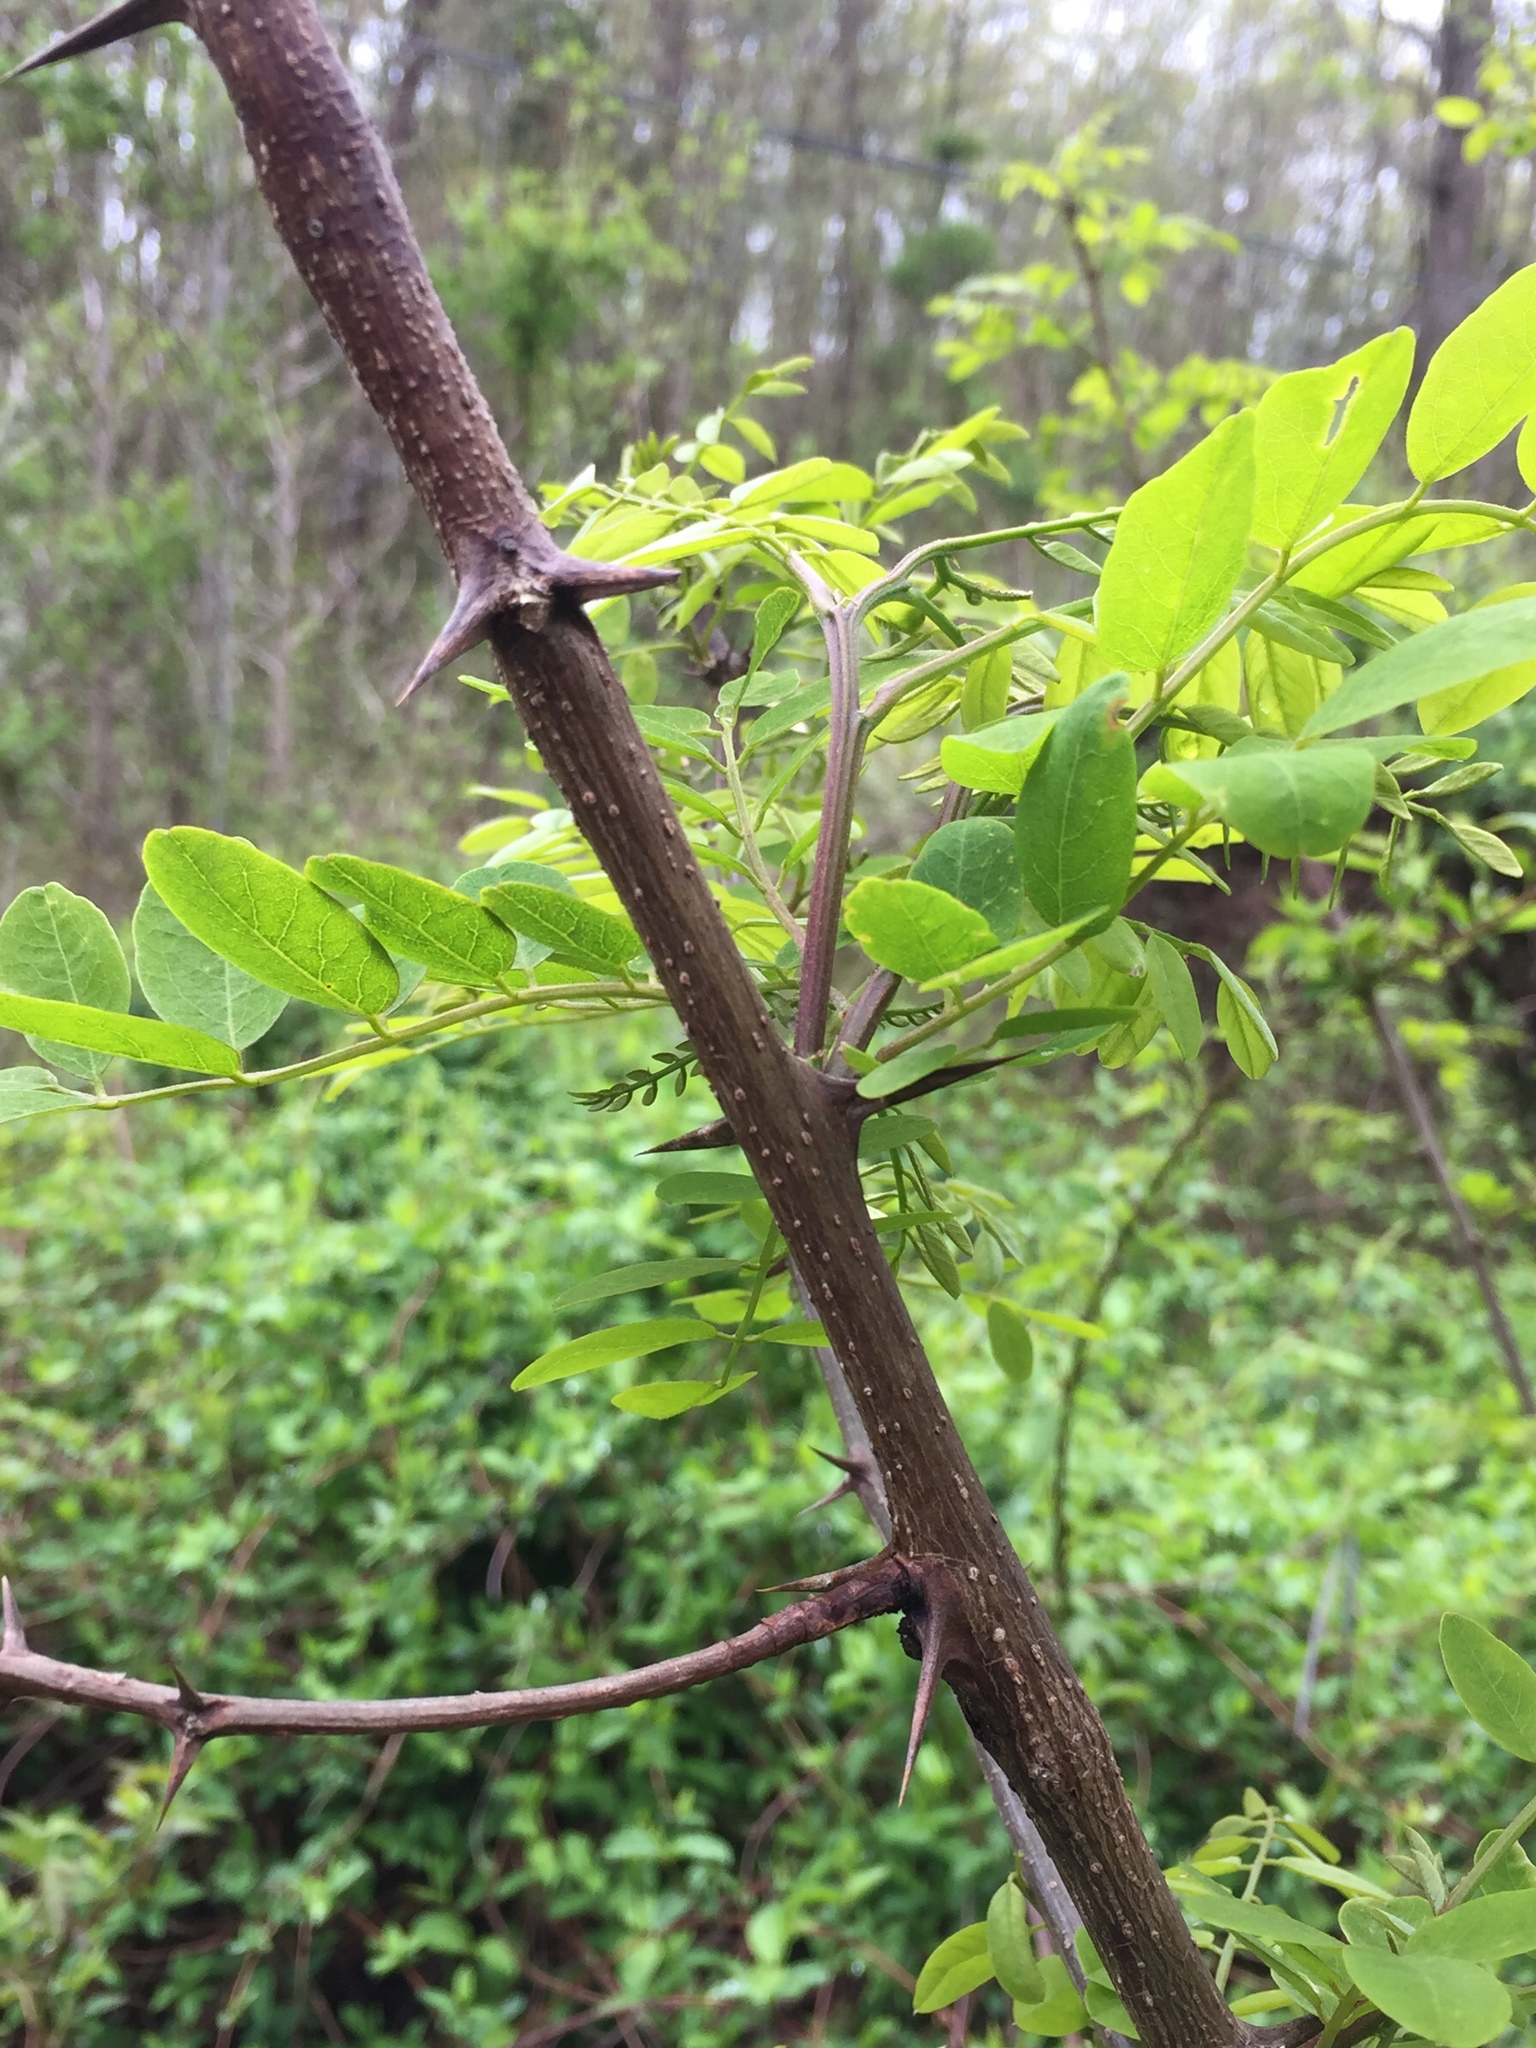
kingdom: Plantae
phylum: Tracheophyta
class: Magnoliopsida
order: Fabales
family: Fabaceae
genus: Robinia
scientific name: Robinia pseudoacacia
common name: Black locust
